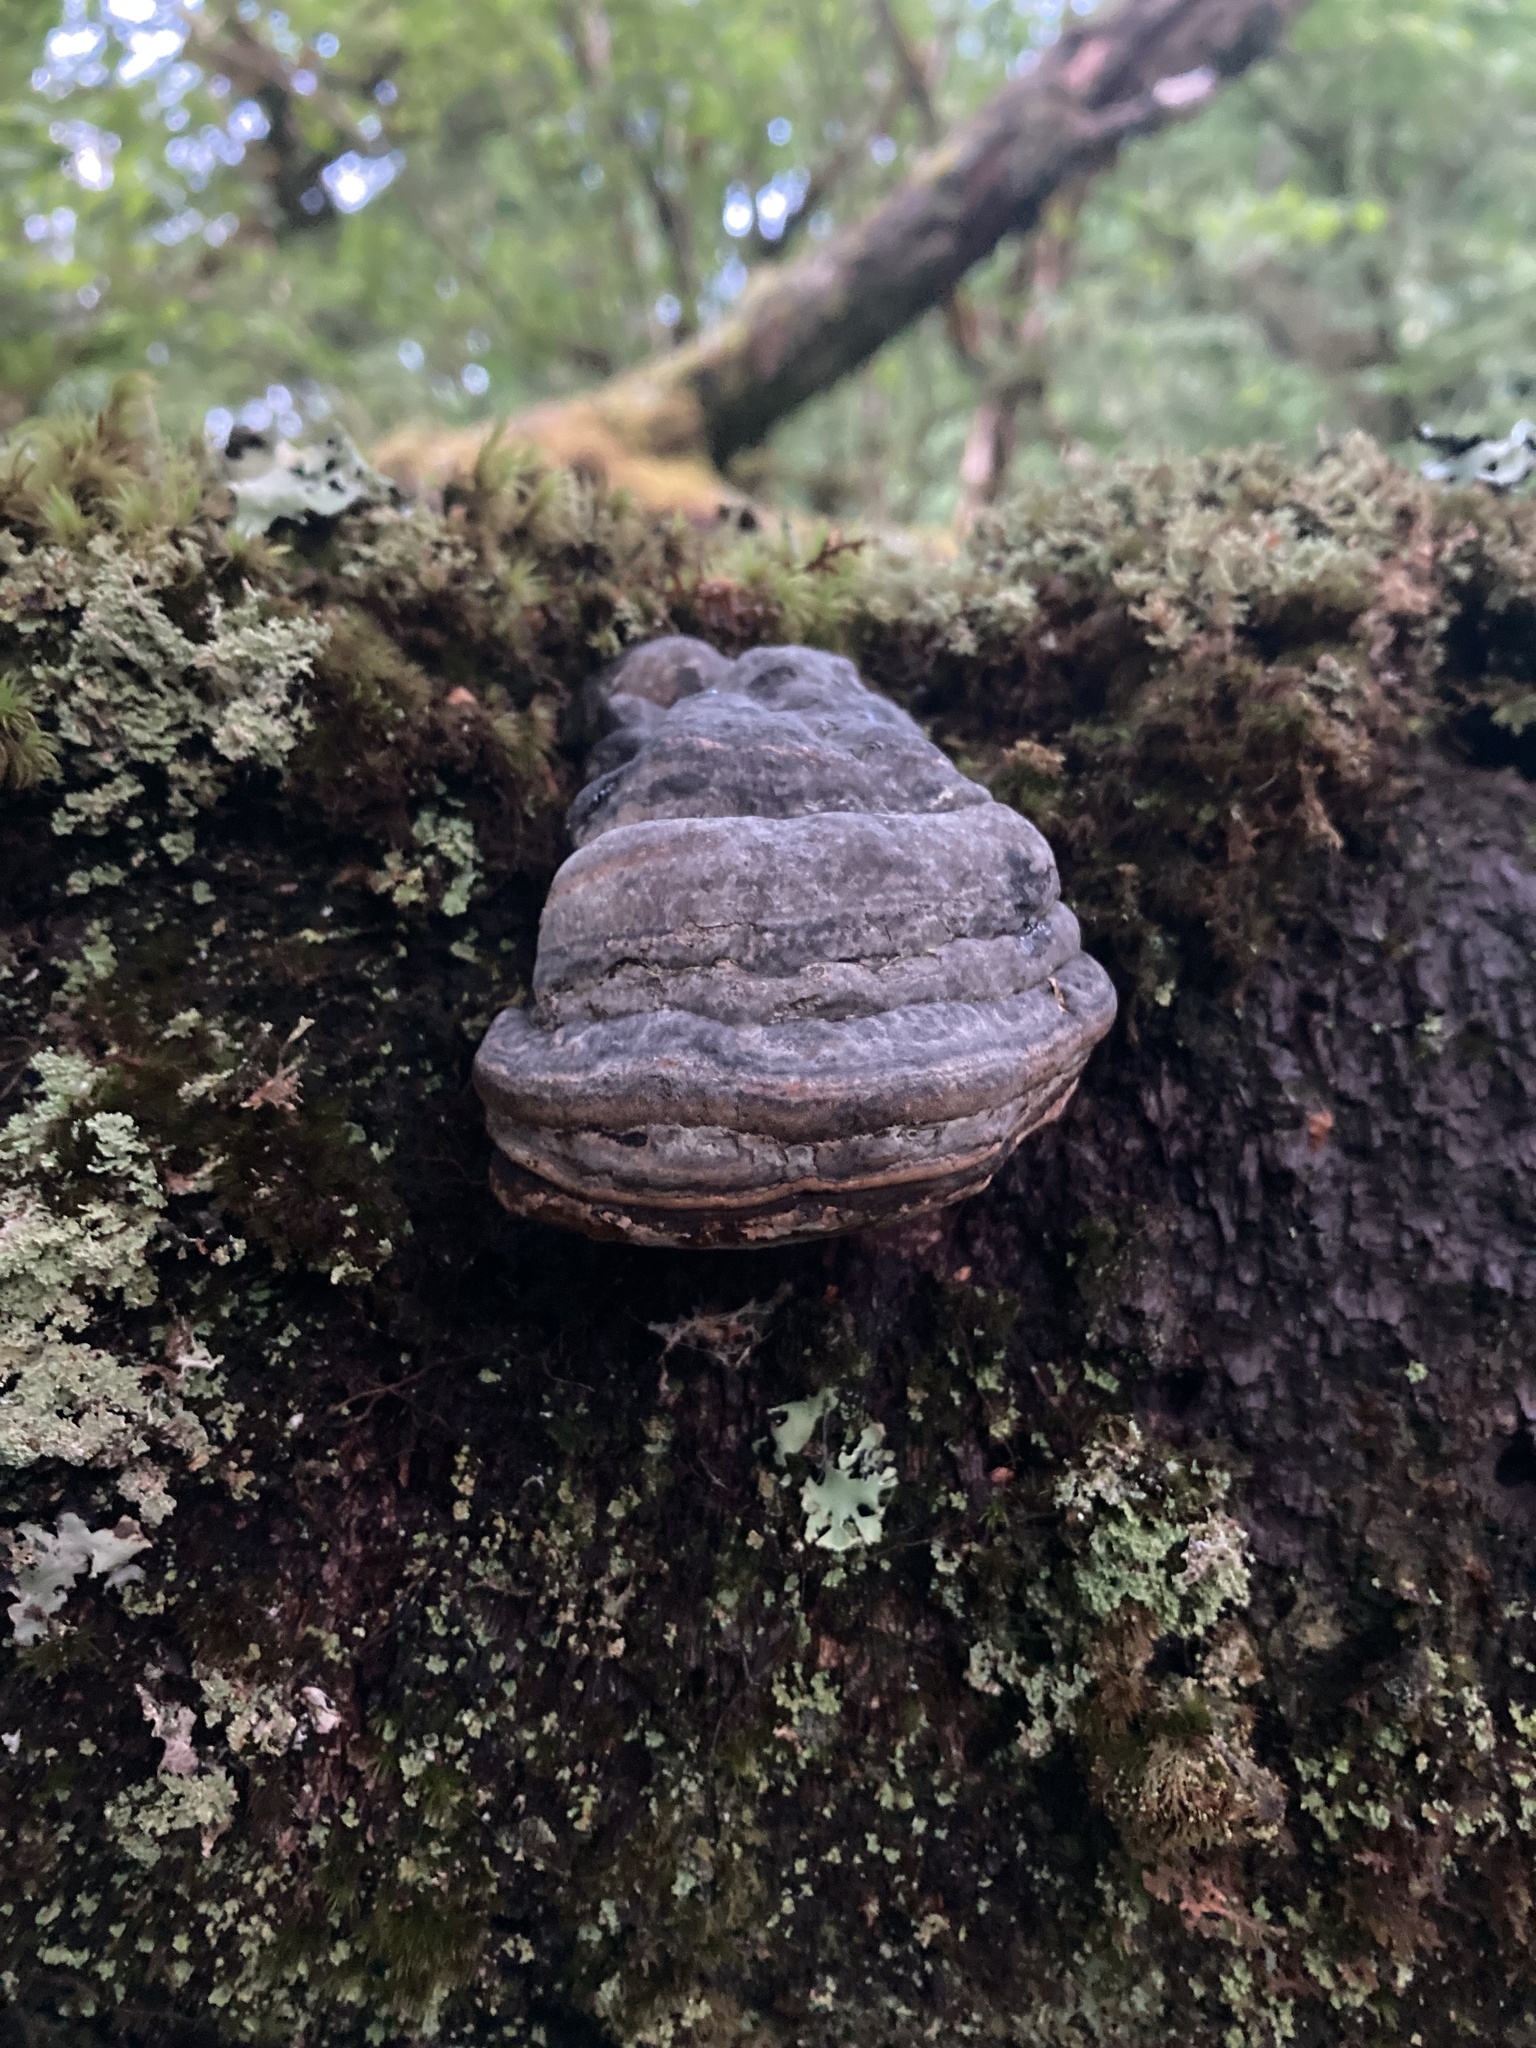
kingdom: Fungi
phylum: Basidiomycota
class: Agaricomycetes
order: Polyporales
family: Polyporaceae
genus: Fomes
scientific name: Fomes fomentarius
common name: Hoof fungus
